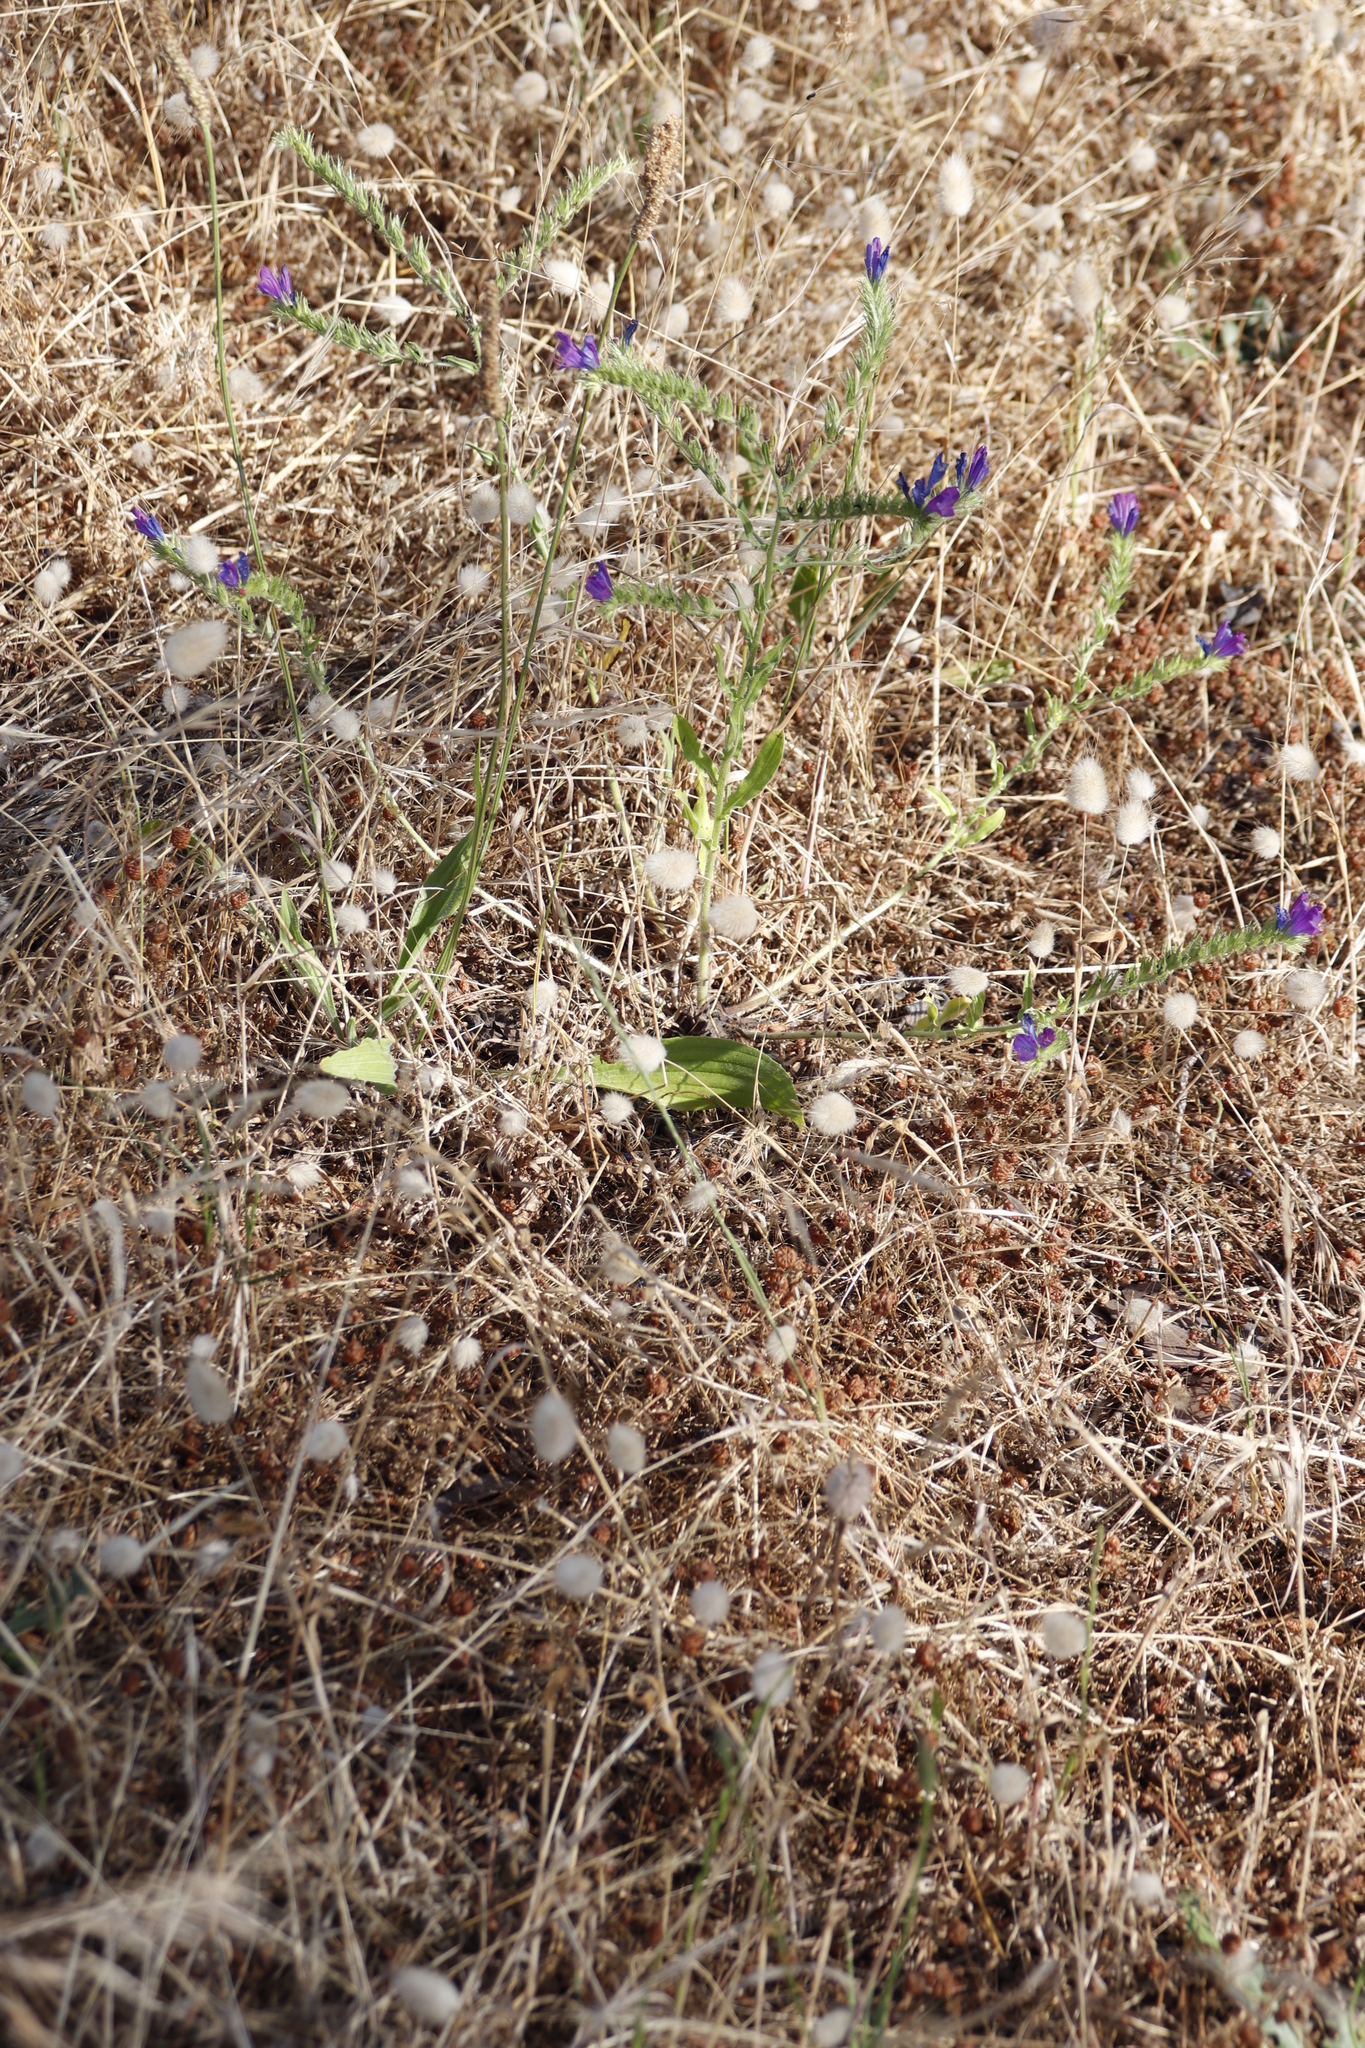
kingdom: Plantae
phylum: Tracheophyta
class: Magnoliopsida
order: Boraginales
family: Boraginaceae
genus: Echium
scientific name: Echium plantagineum
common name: Purple viper's-bugloss
